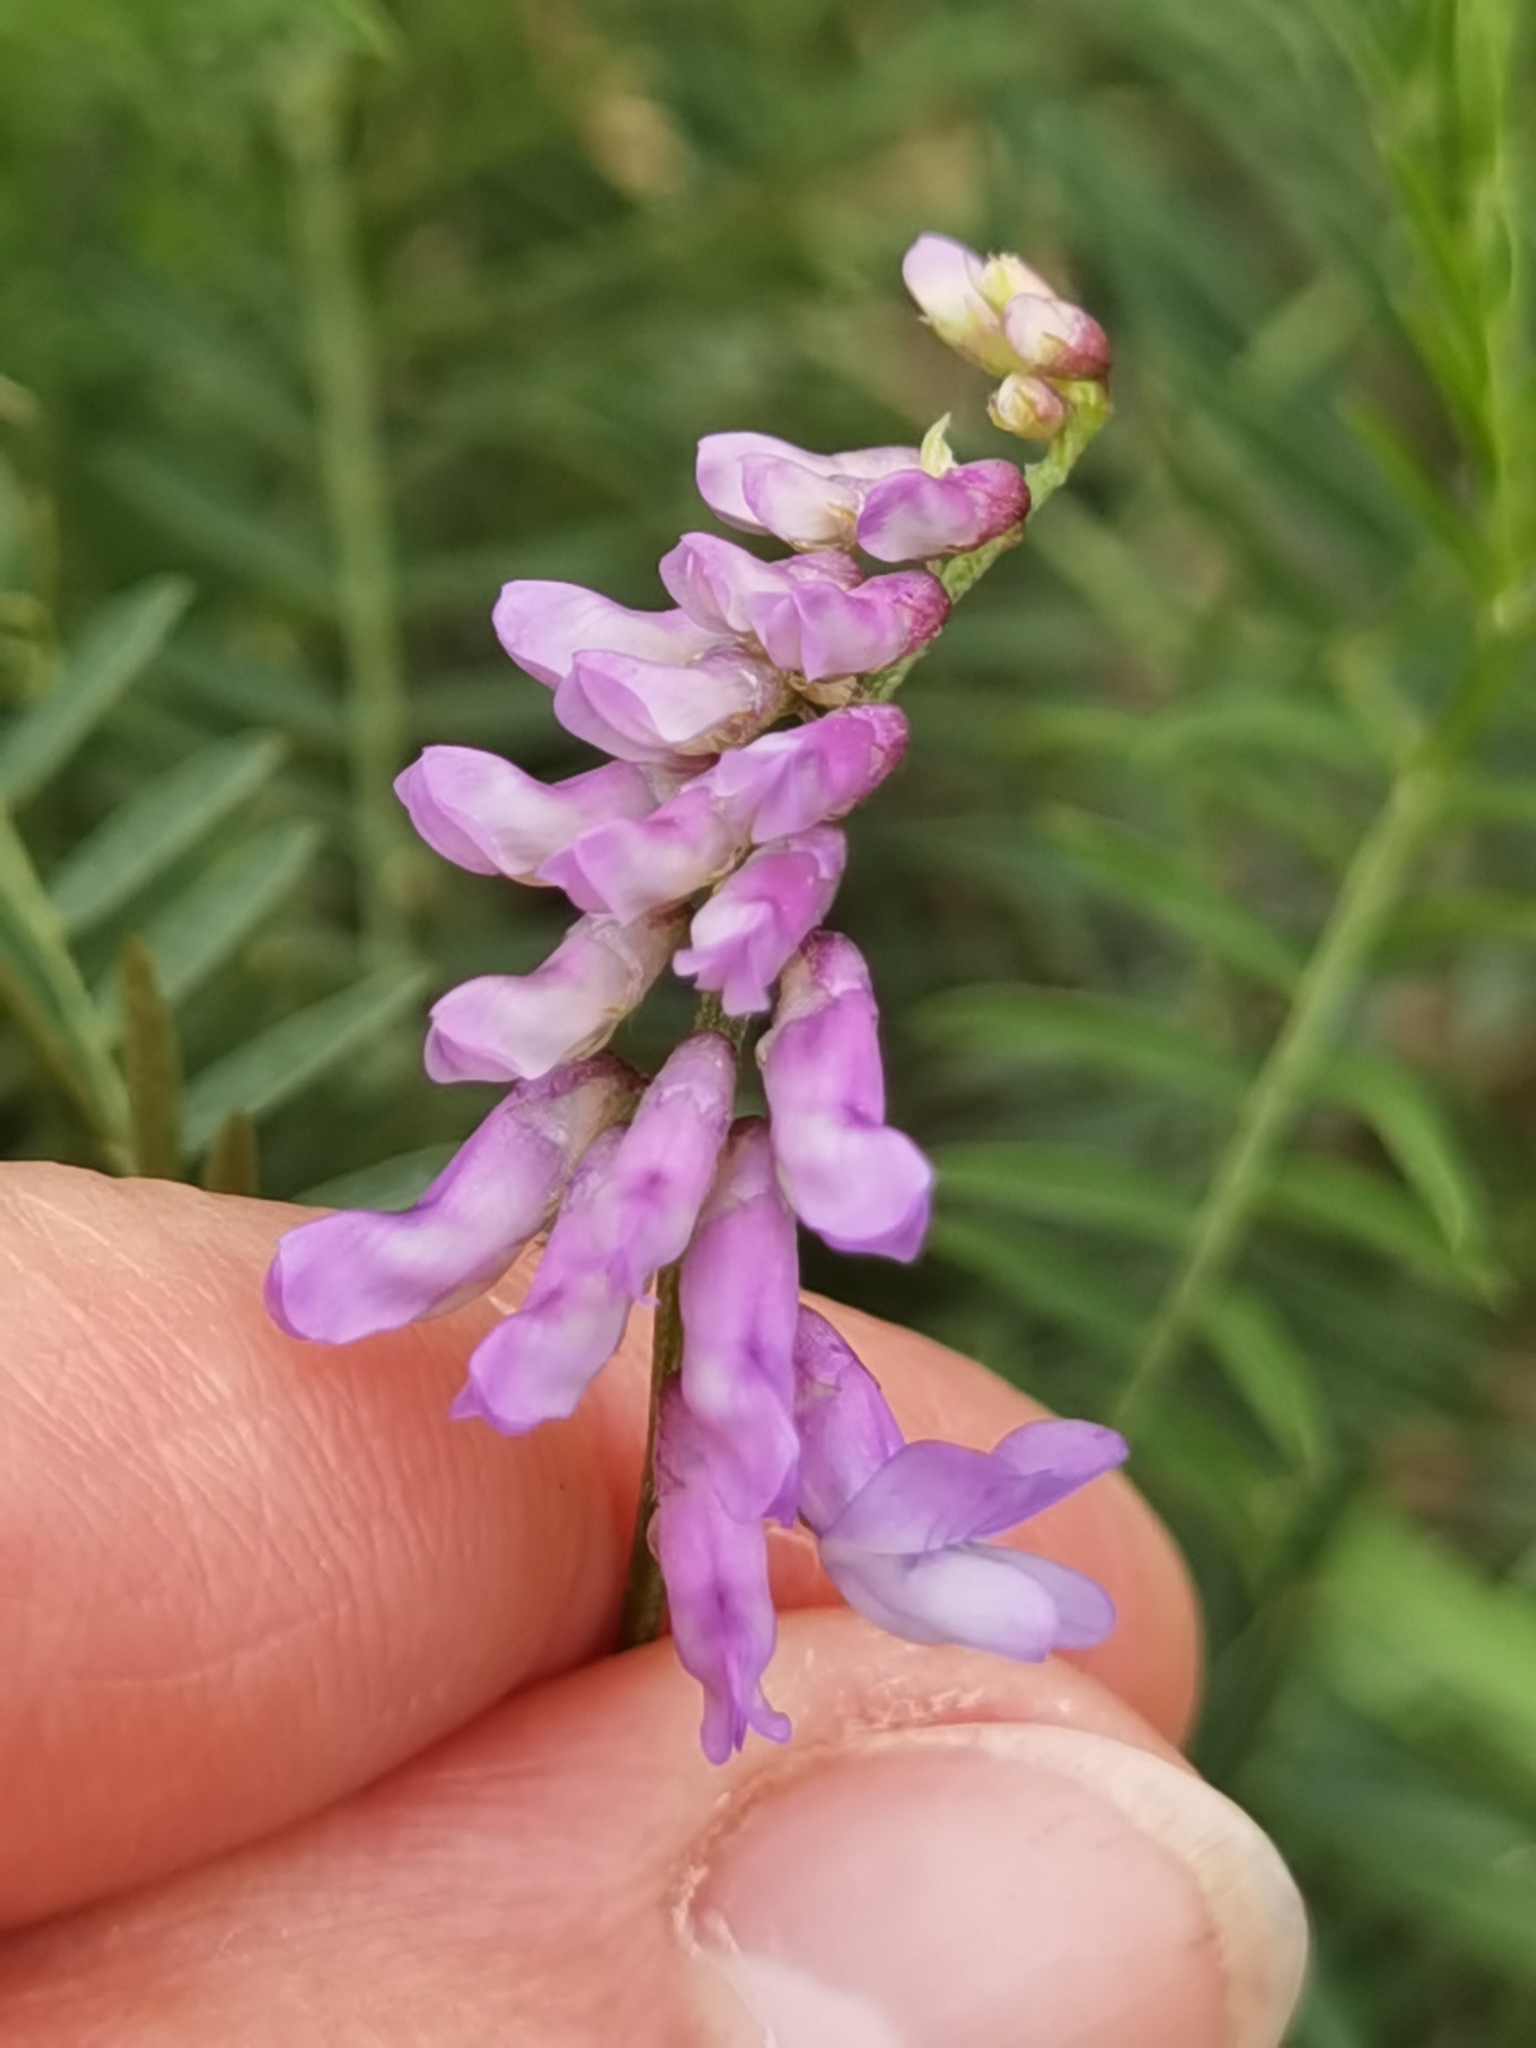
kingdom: Plantae
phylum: Tracheophyta
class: Magnoliopsida
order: Fabales
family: Fabaceae
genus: Vicia
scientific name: Vicia cracca
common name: Bird vetch
